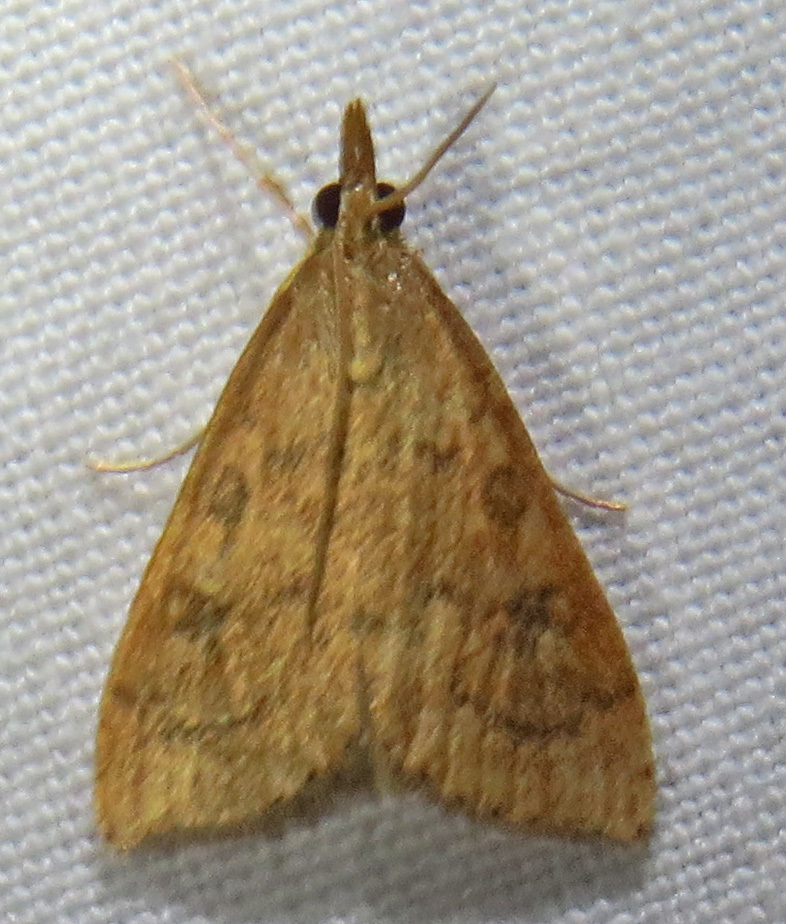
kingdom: Animalia
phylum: Arthropoda
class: Insecta
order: Lepidoptera
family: Crambidae
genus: Udea
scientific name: Udea rubigalis
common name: Celery leaftier moth
